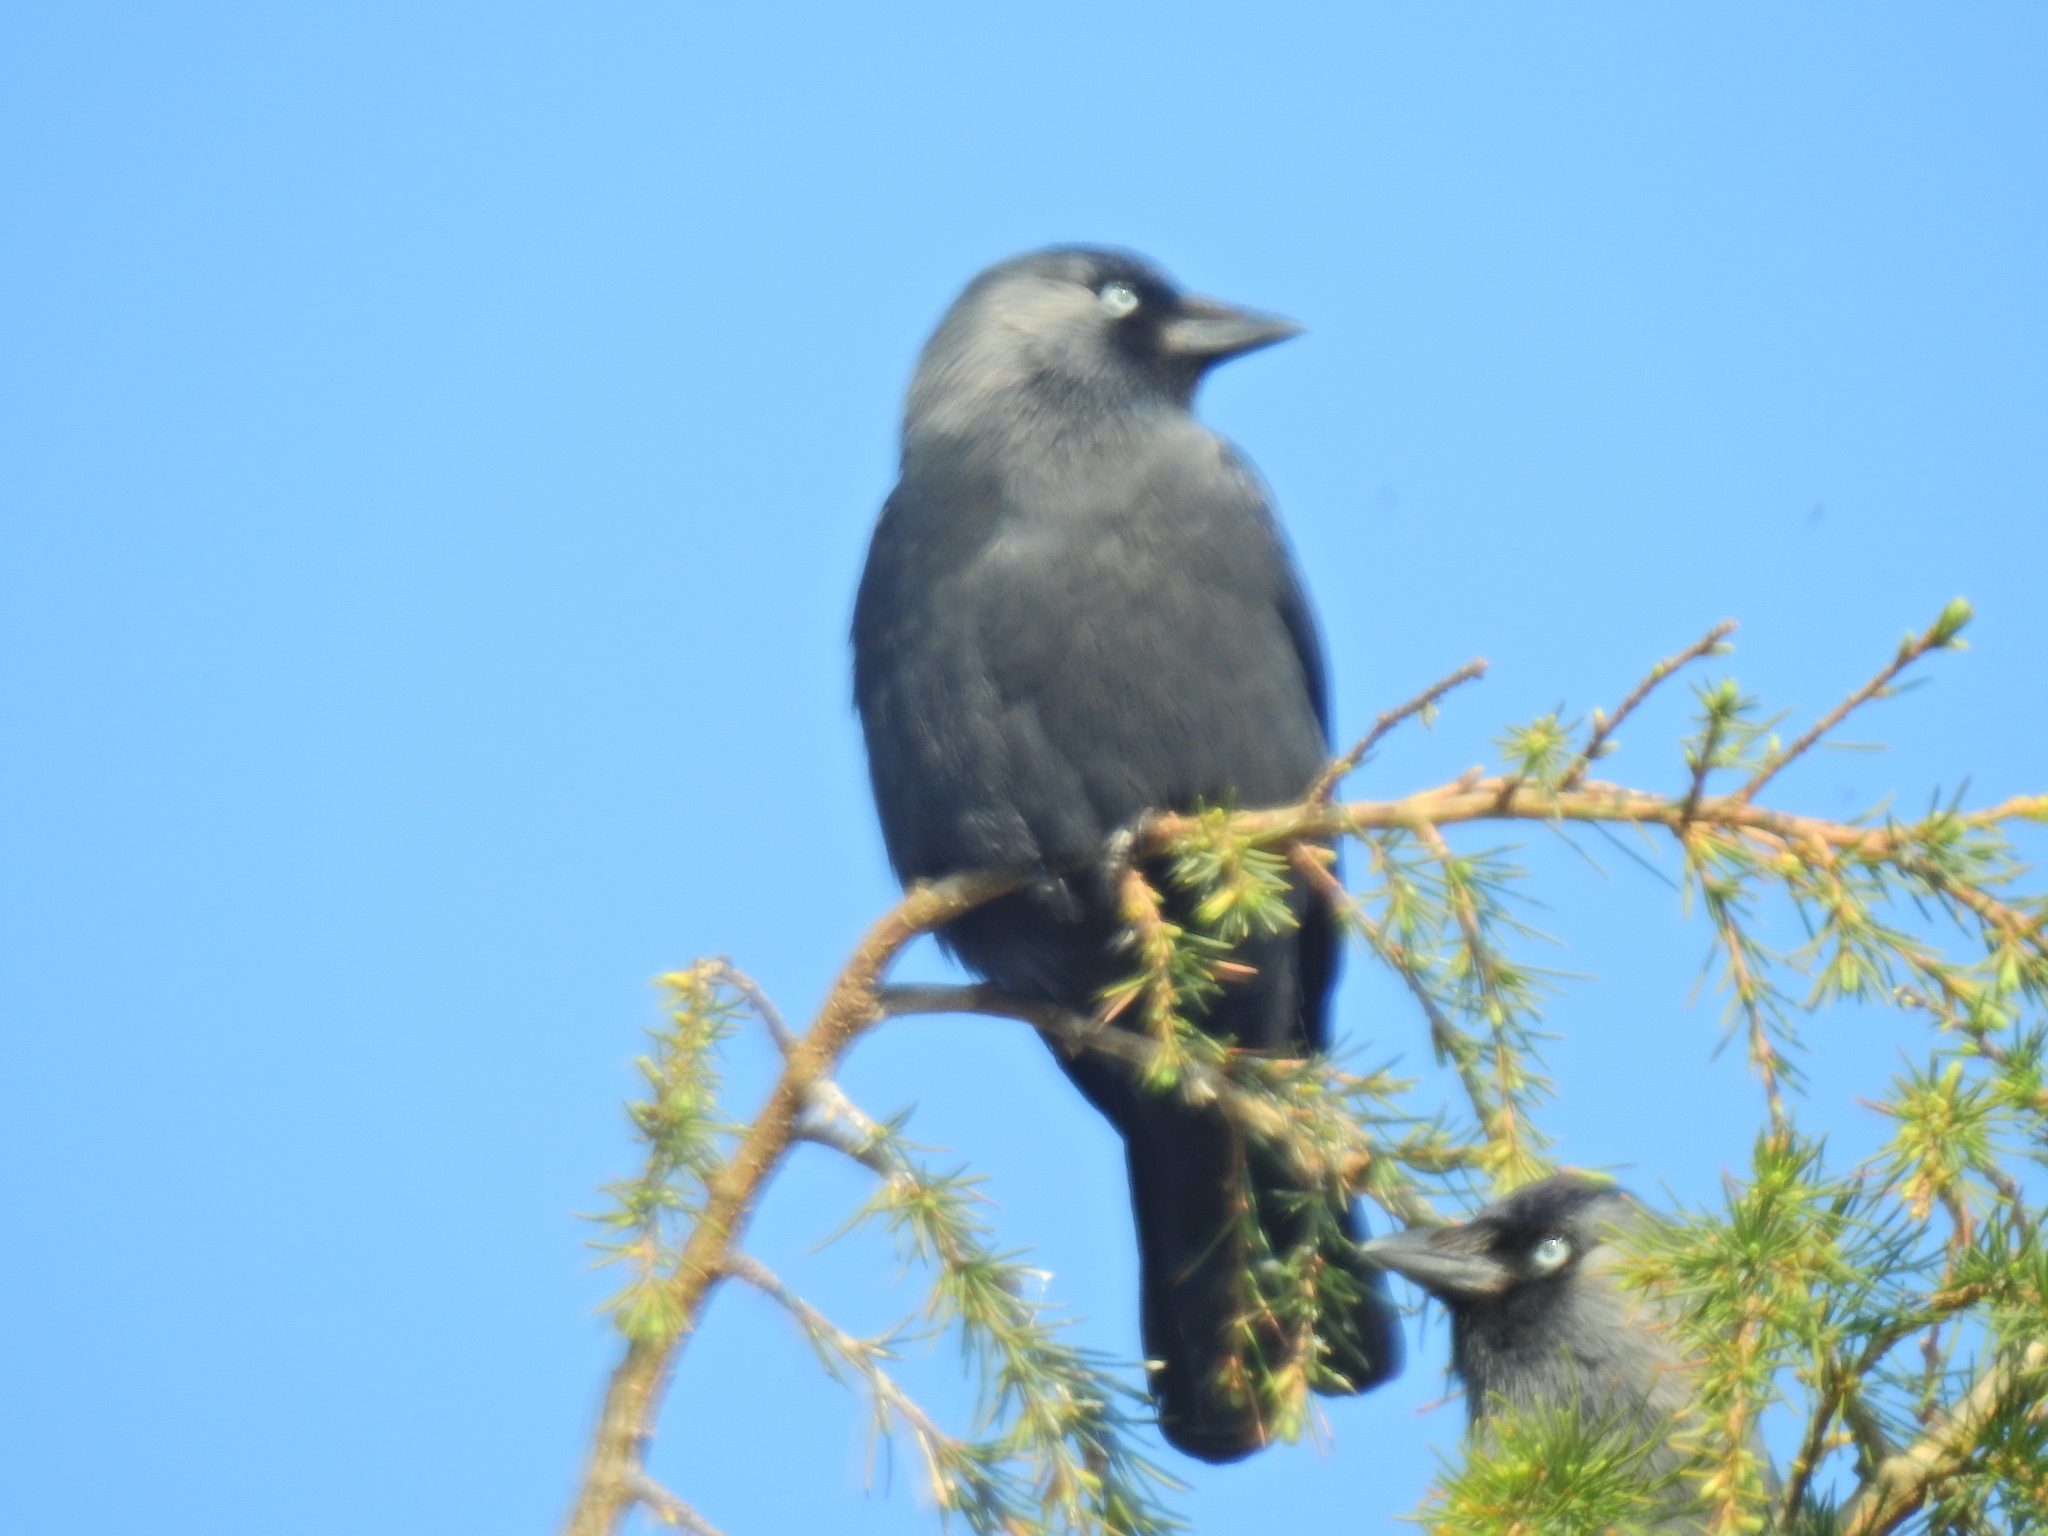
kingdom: Animalia
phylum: Chordata
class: Aves
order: Passeriformes
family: Corvidae
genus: Coloeus
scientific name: Coloeus monedula
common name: Western jackdaw
